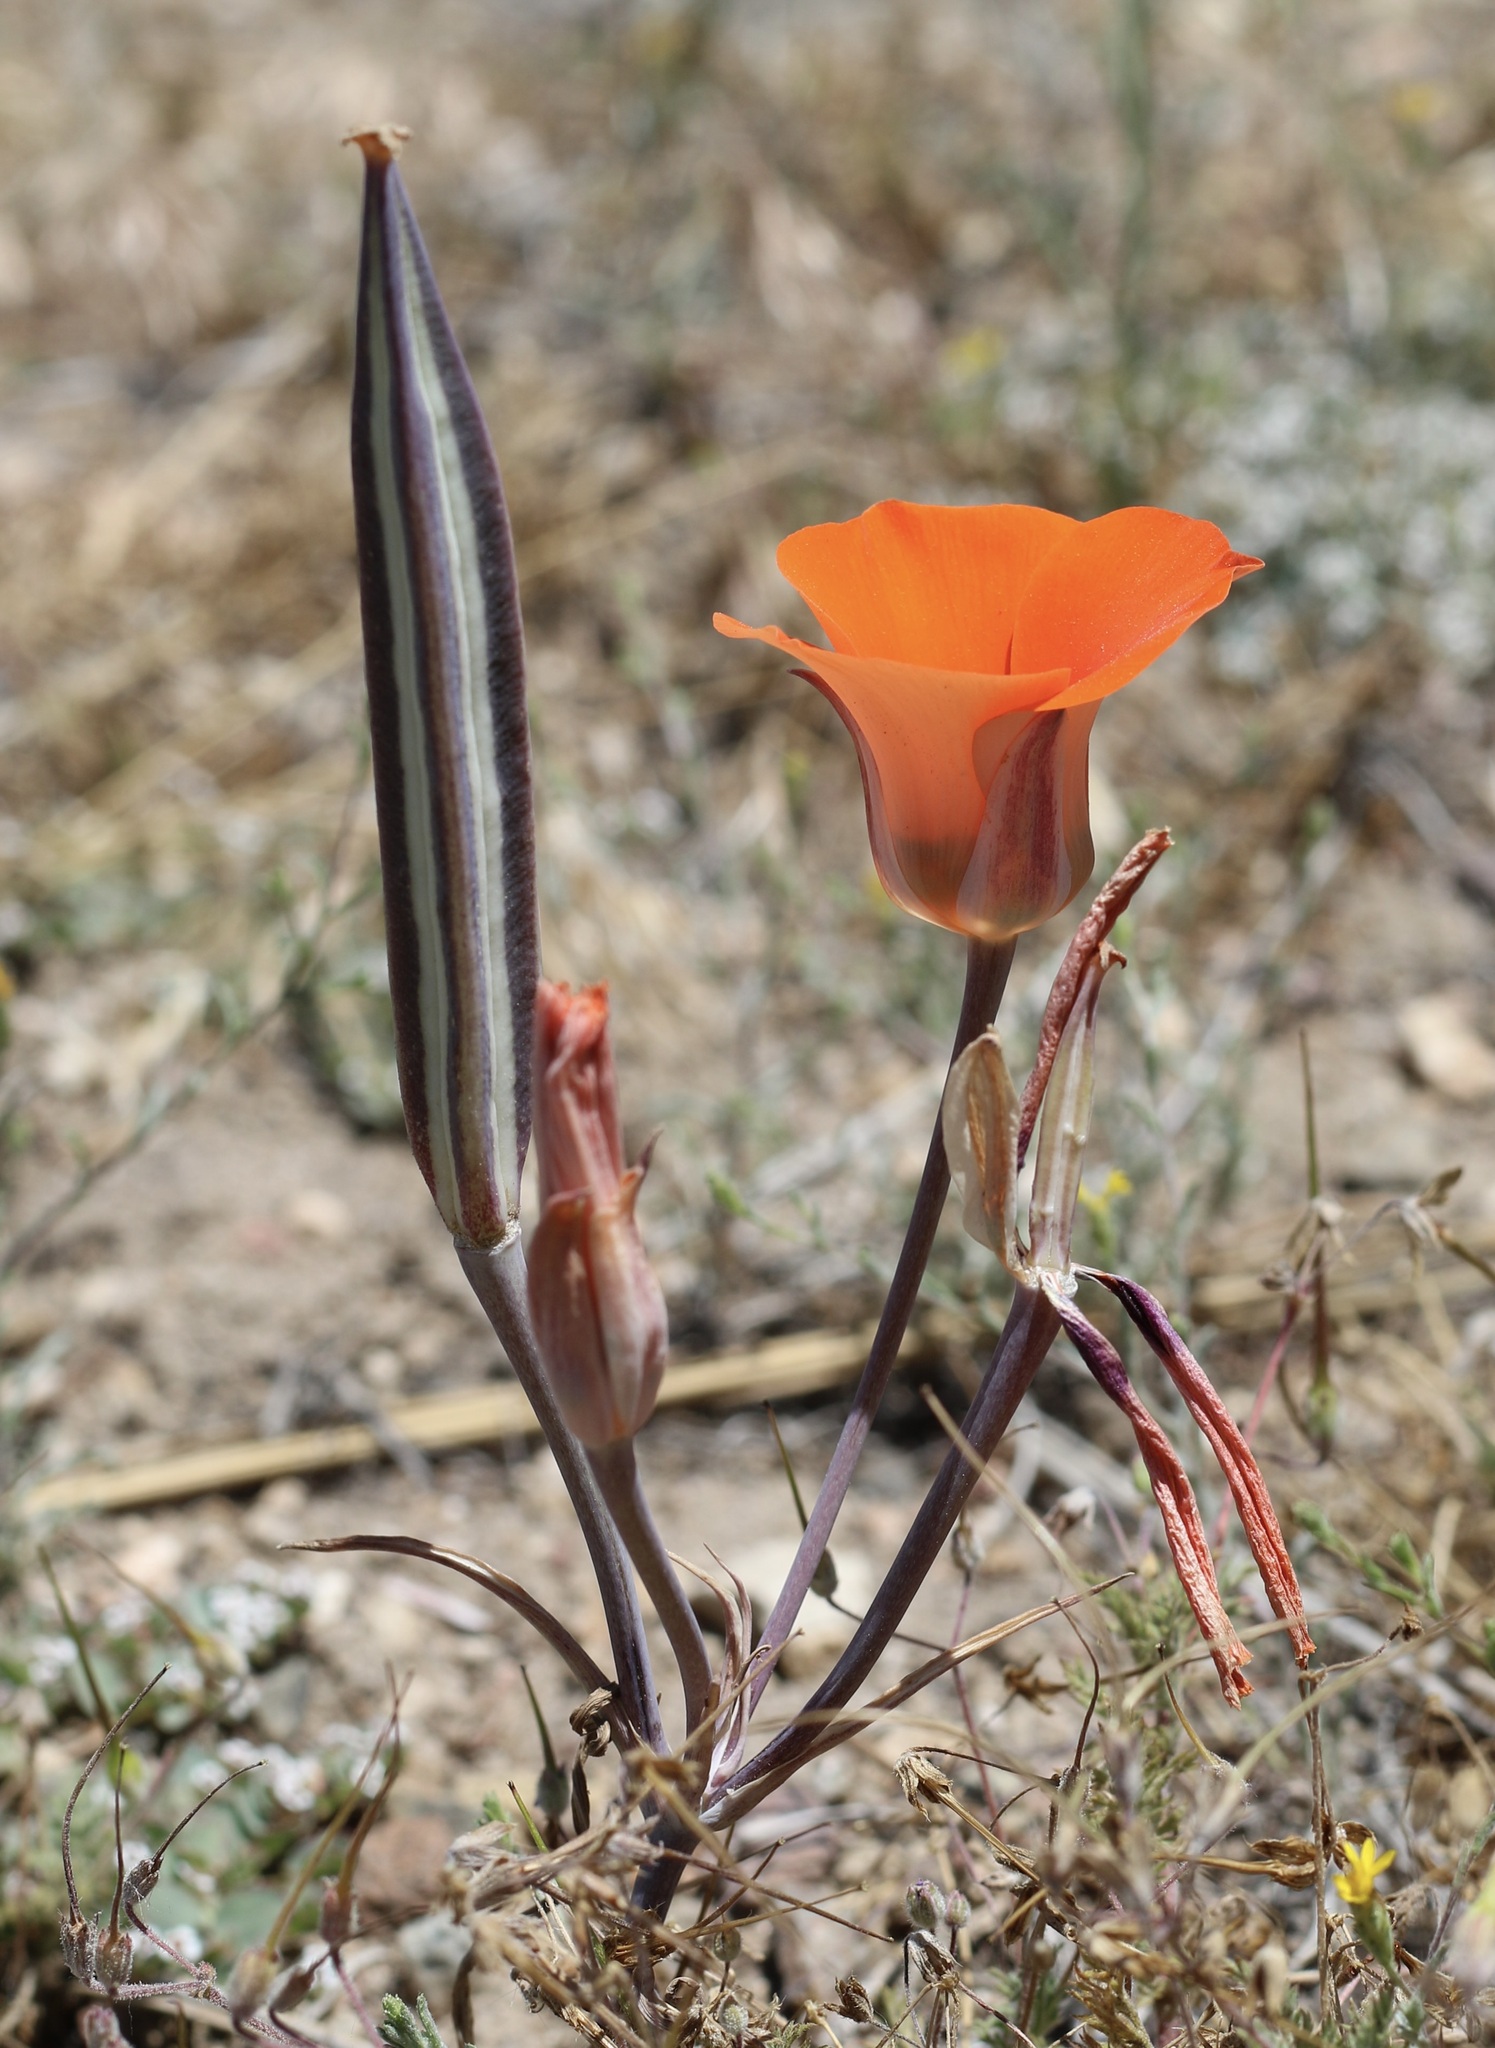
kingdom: Plantae
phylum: Tracheophyta
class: Liliopsida
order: Liliales
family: Liliaceae
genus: Calochortus
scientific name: Calochortus kennedyi
